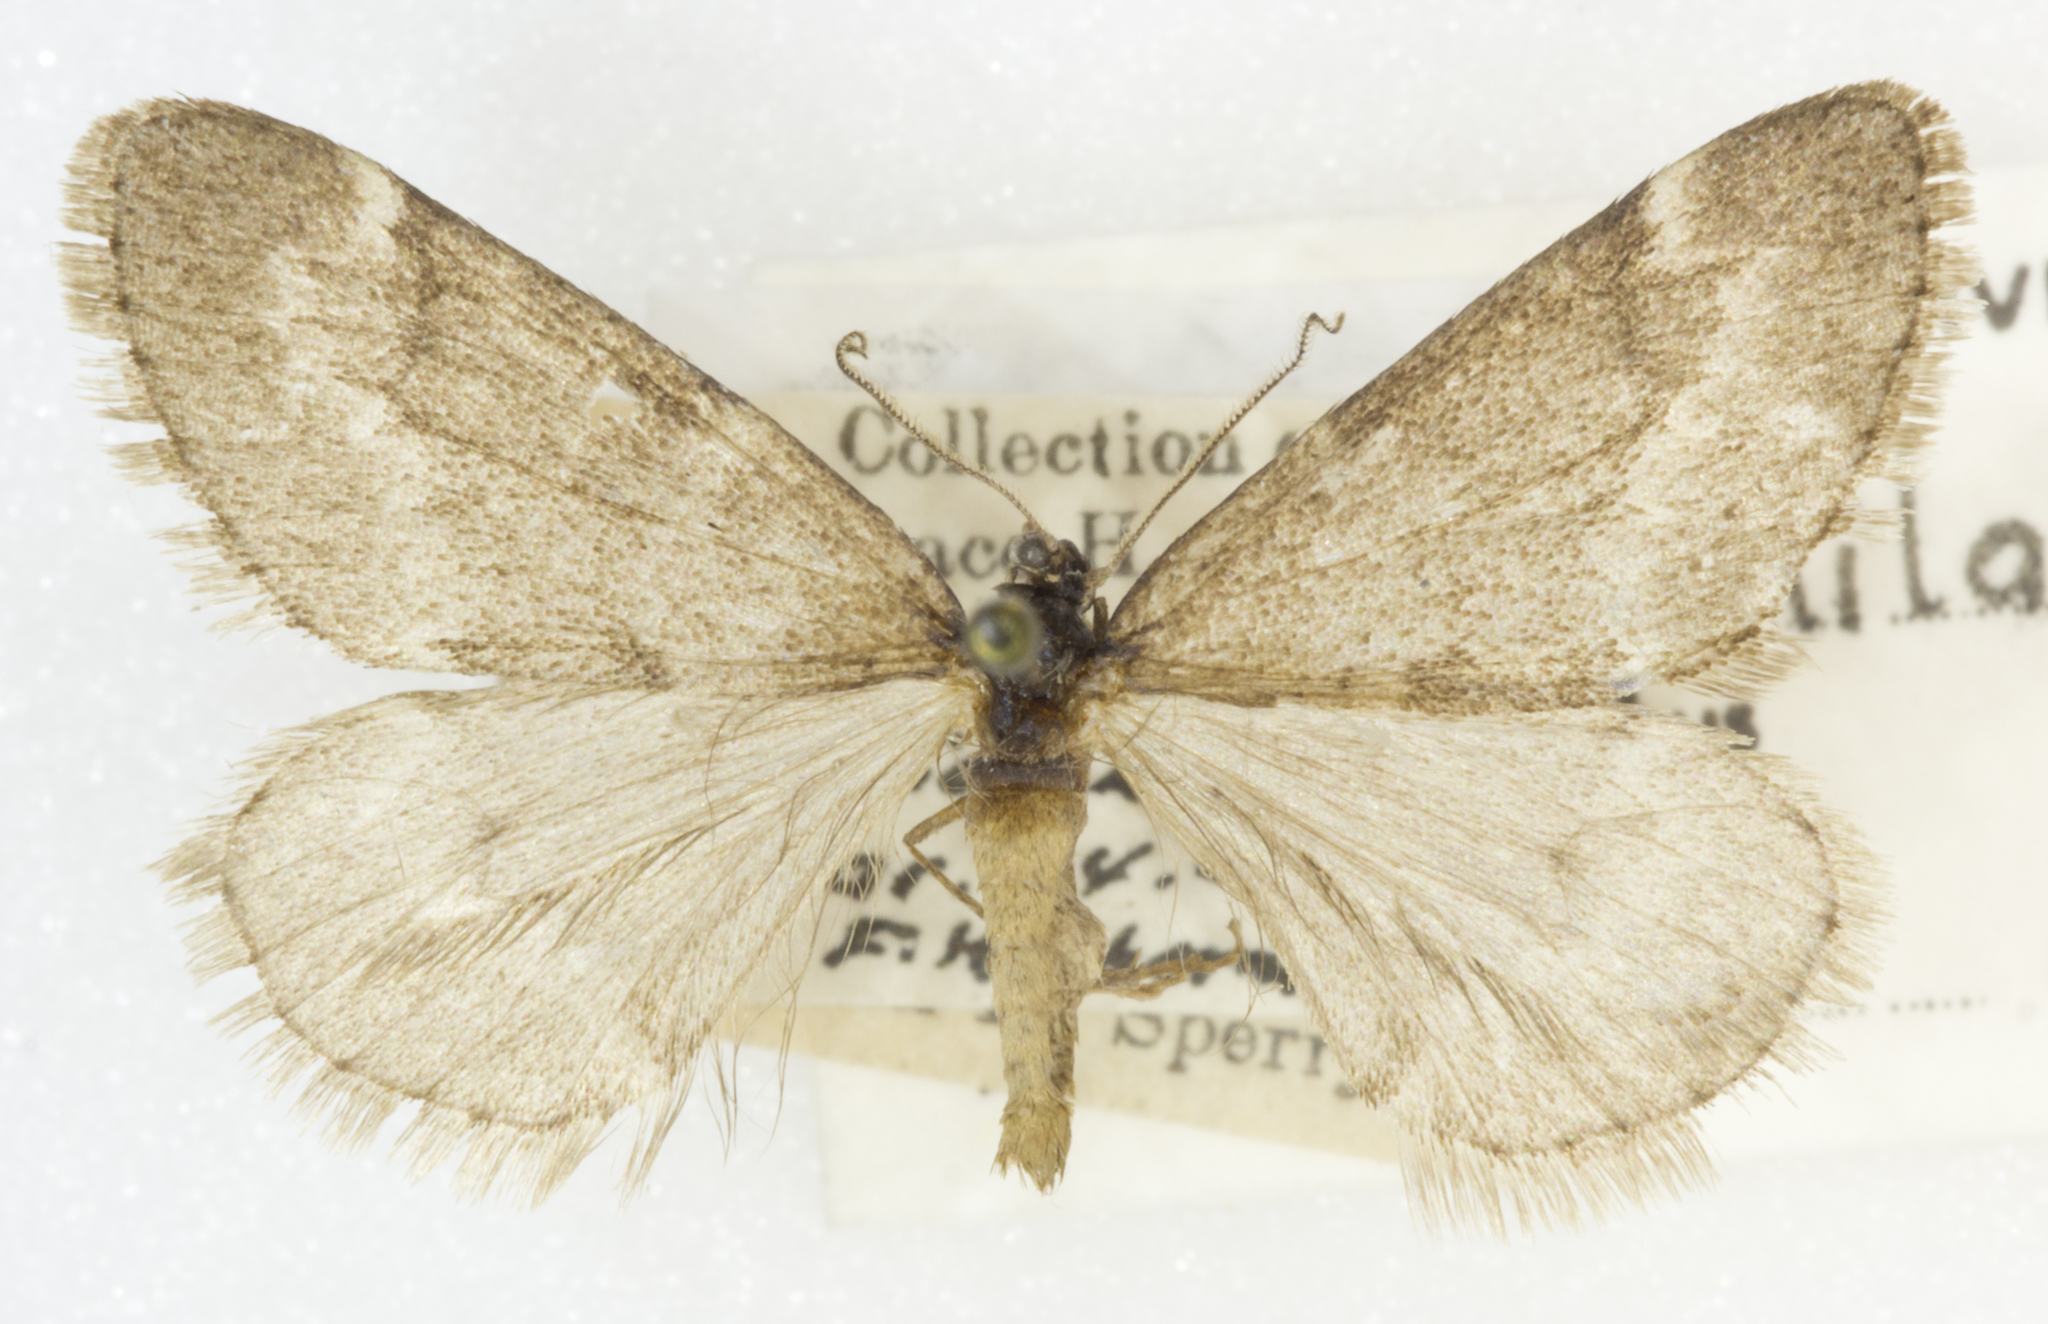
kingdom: Animalia
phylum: Arthropoda
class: Insecta
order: Lepidoptera
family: Geometridae
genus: Alsophila
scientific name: Alsophila pometaria
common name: Fall cankerworm
